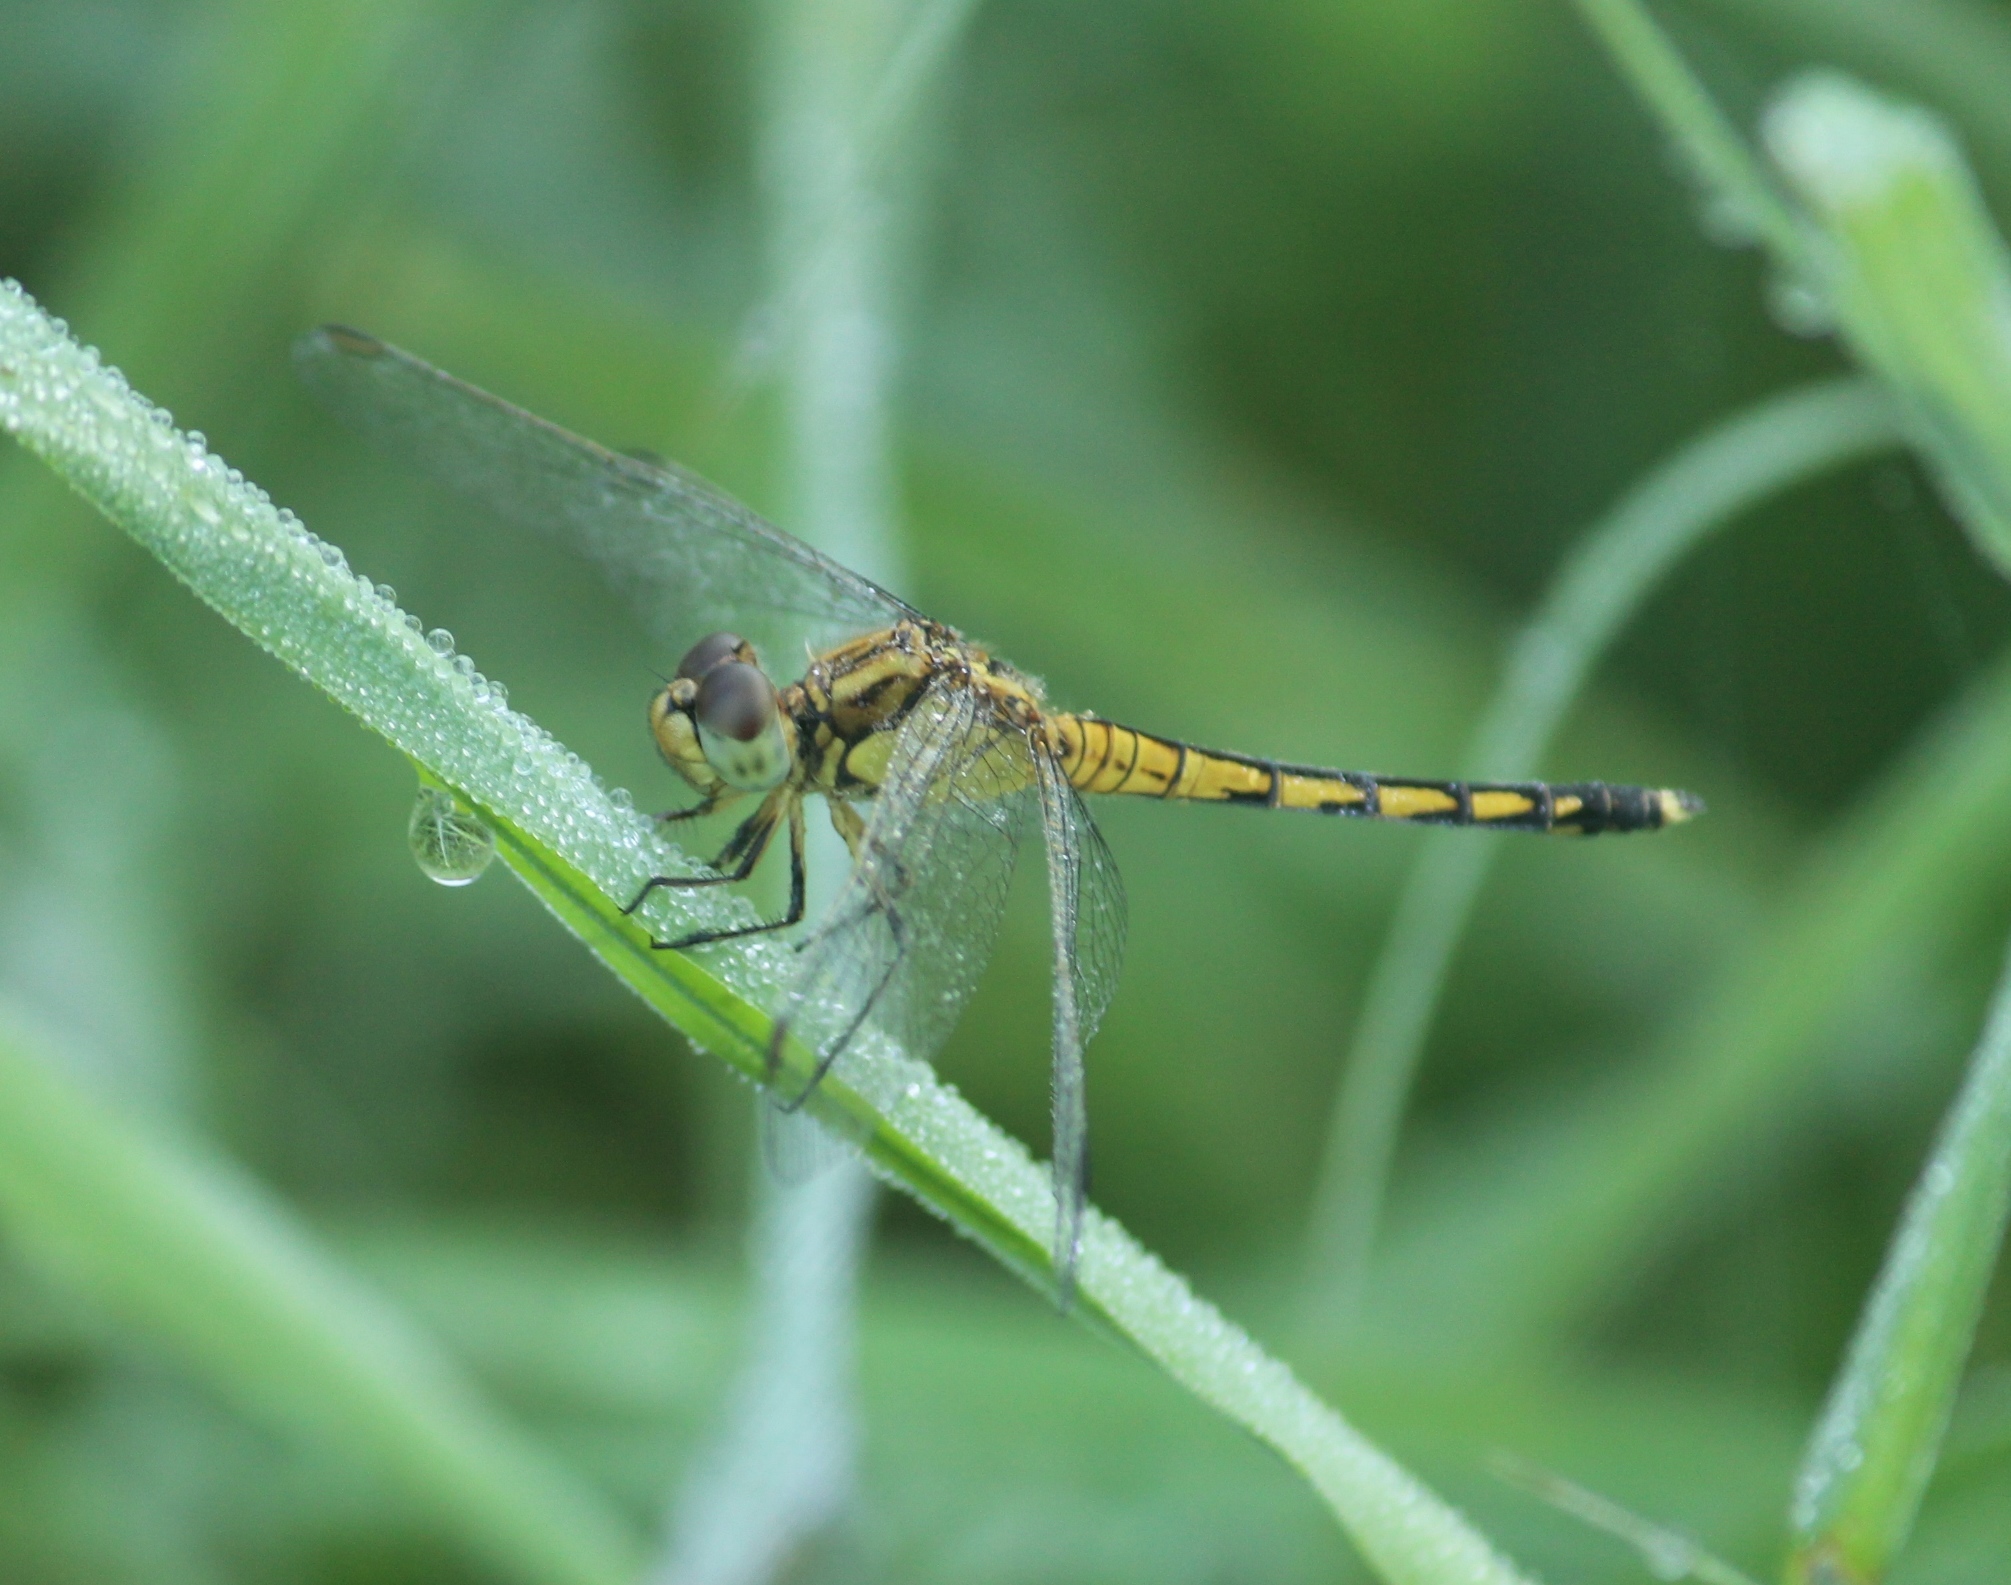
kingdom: Animalia
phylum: Arthropoda
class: Insecta
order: Odonata
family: Libellulidae
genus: Indothemis
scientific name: Indothemis carnatica
